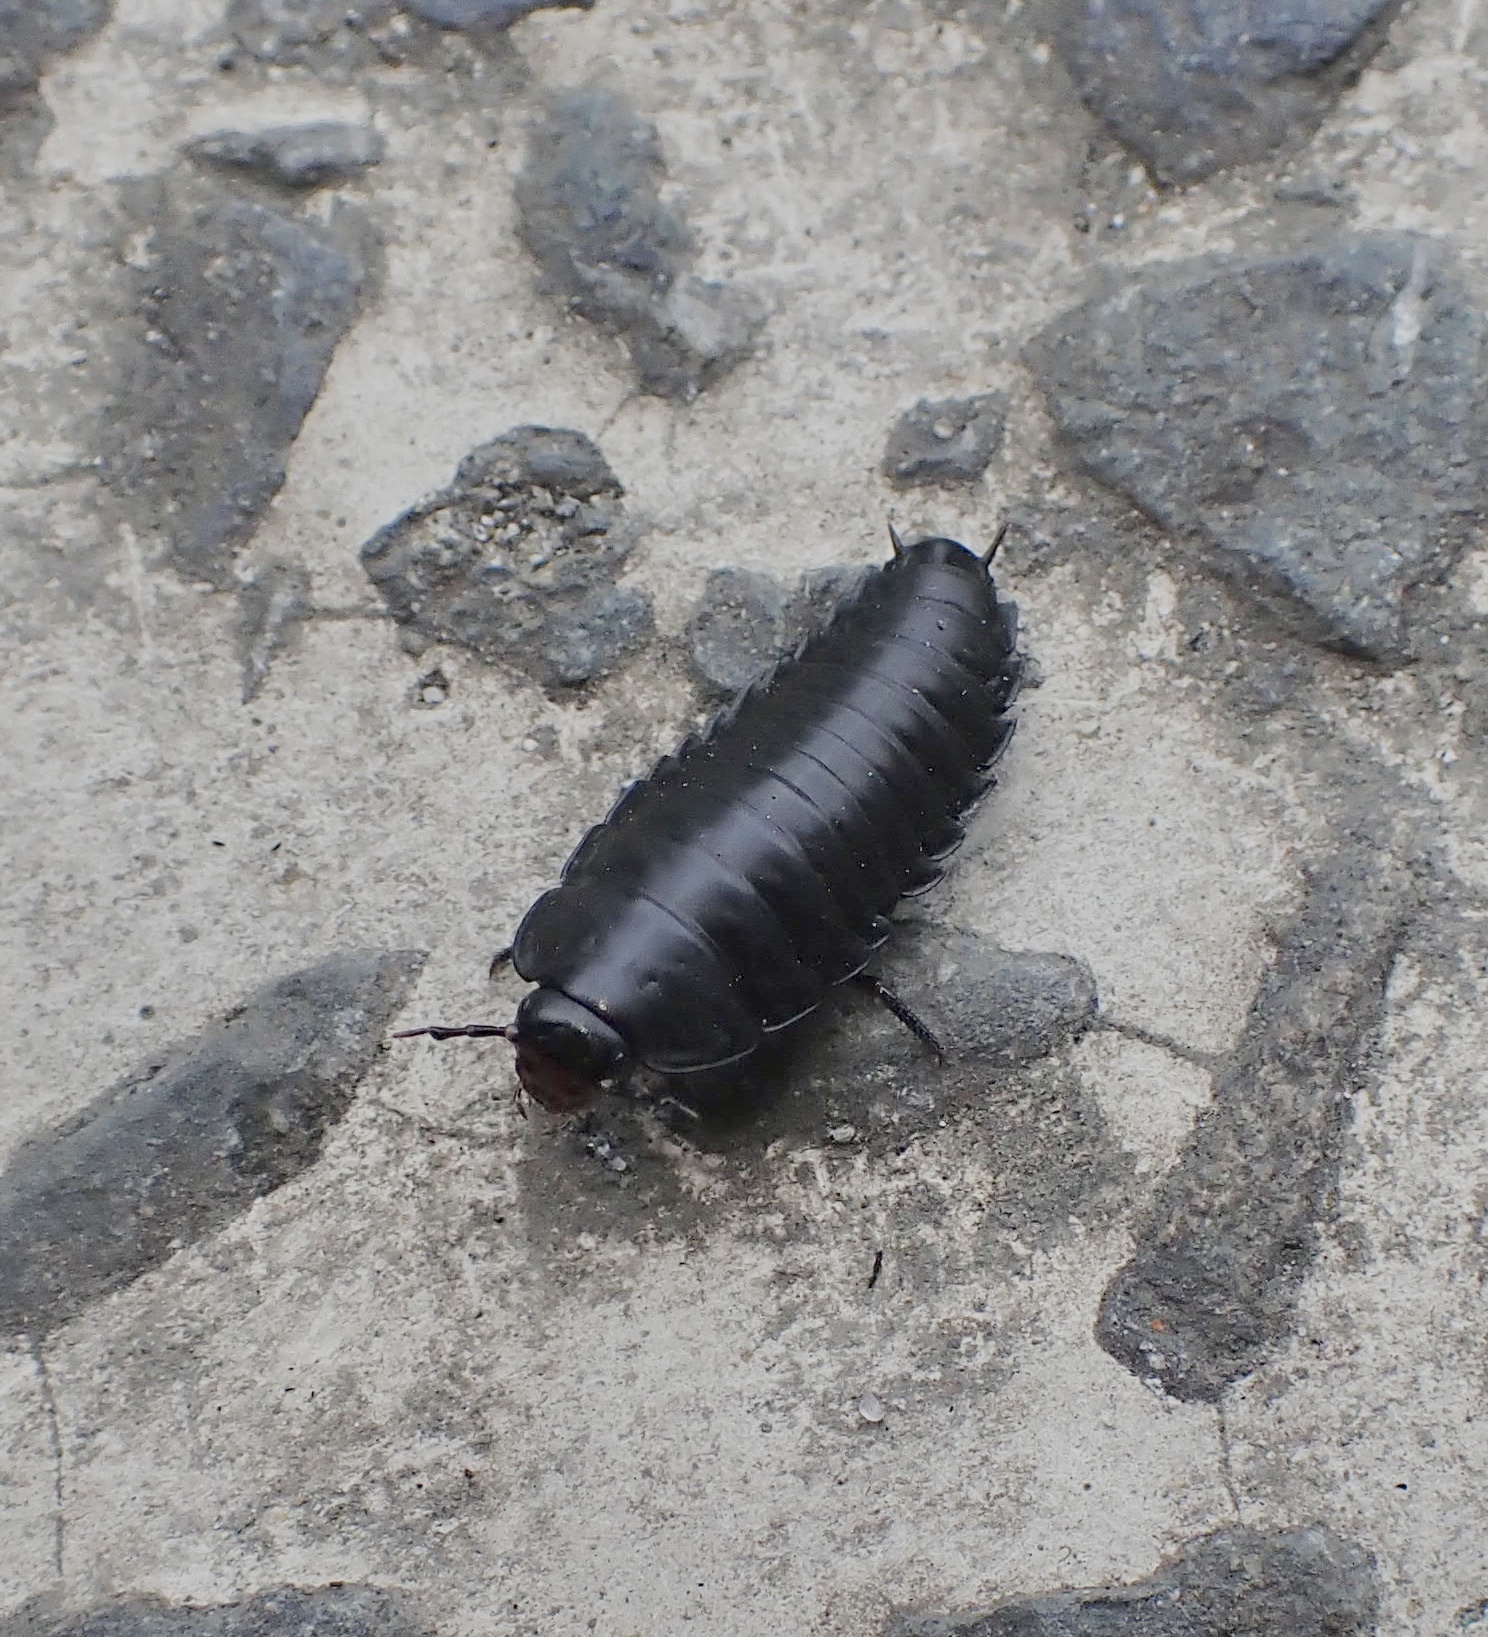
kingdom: Animalia
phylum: Arthropoda
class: Insecta
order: Coleoptera
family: Staphylinidae
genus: Necrophila
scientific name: Necrophila japonica
